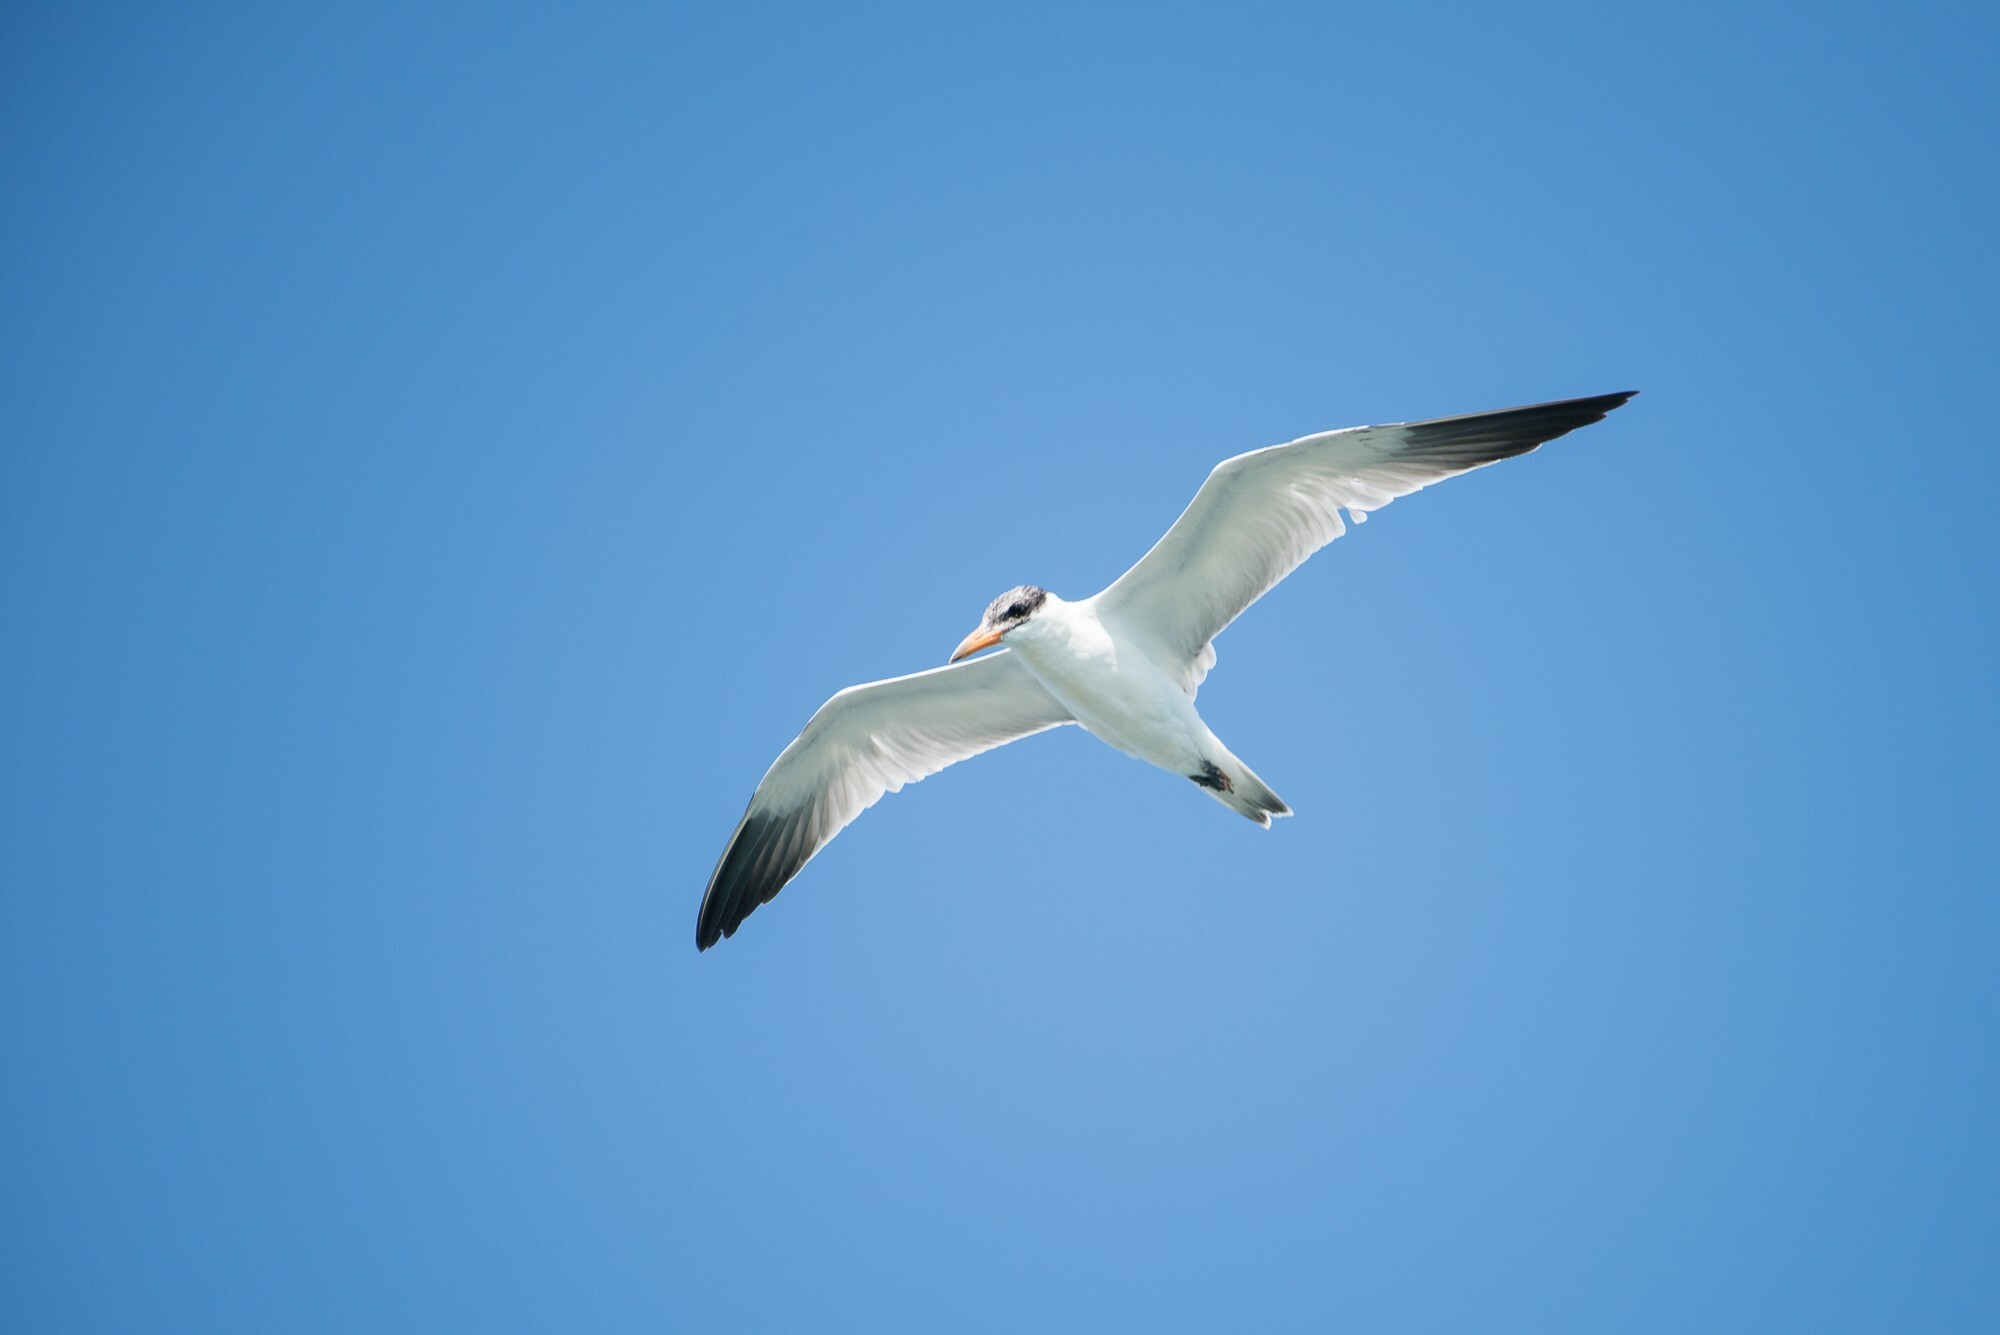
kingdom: Animalia
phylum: Chordata
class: Aves
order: Charadriiformes
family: Laridae
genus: Hydroprogne
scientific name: Hydroprogne caspia
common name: Caspian tern
